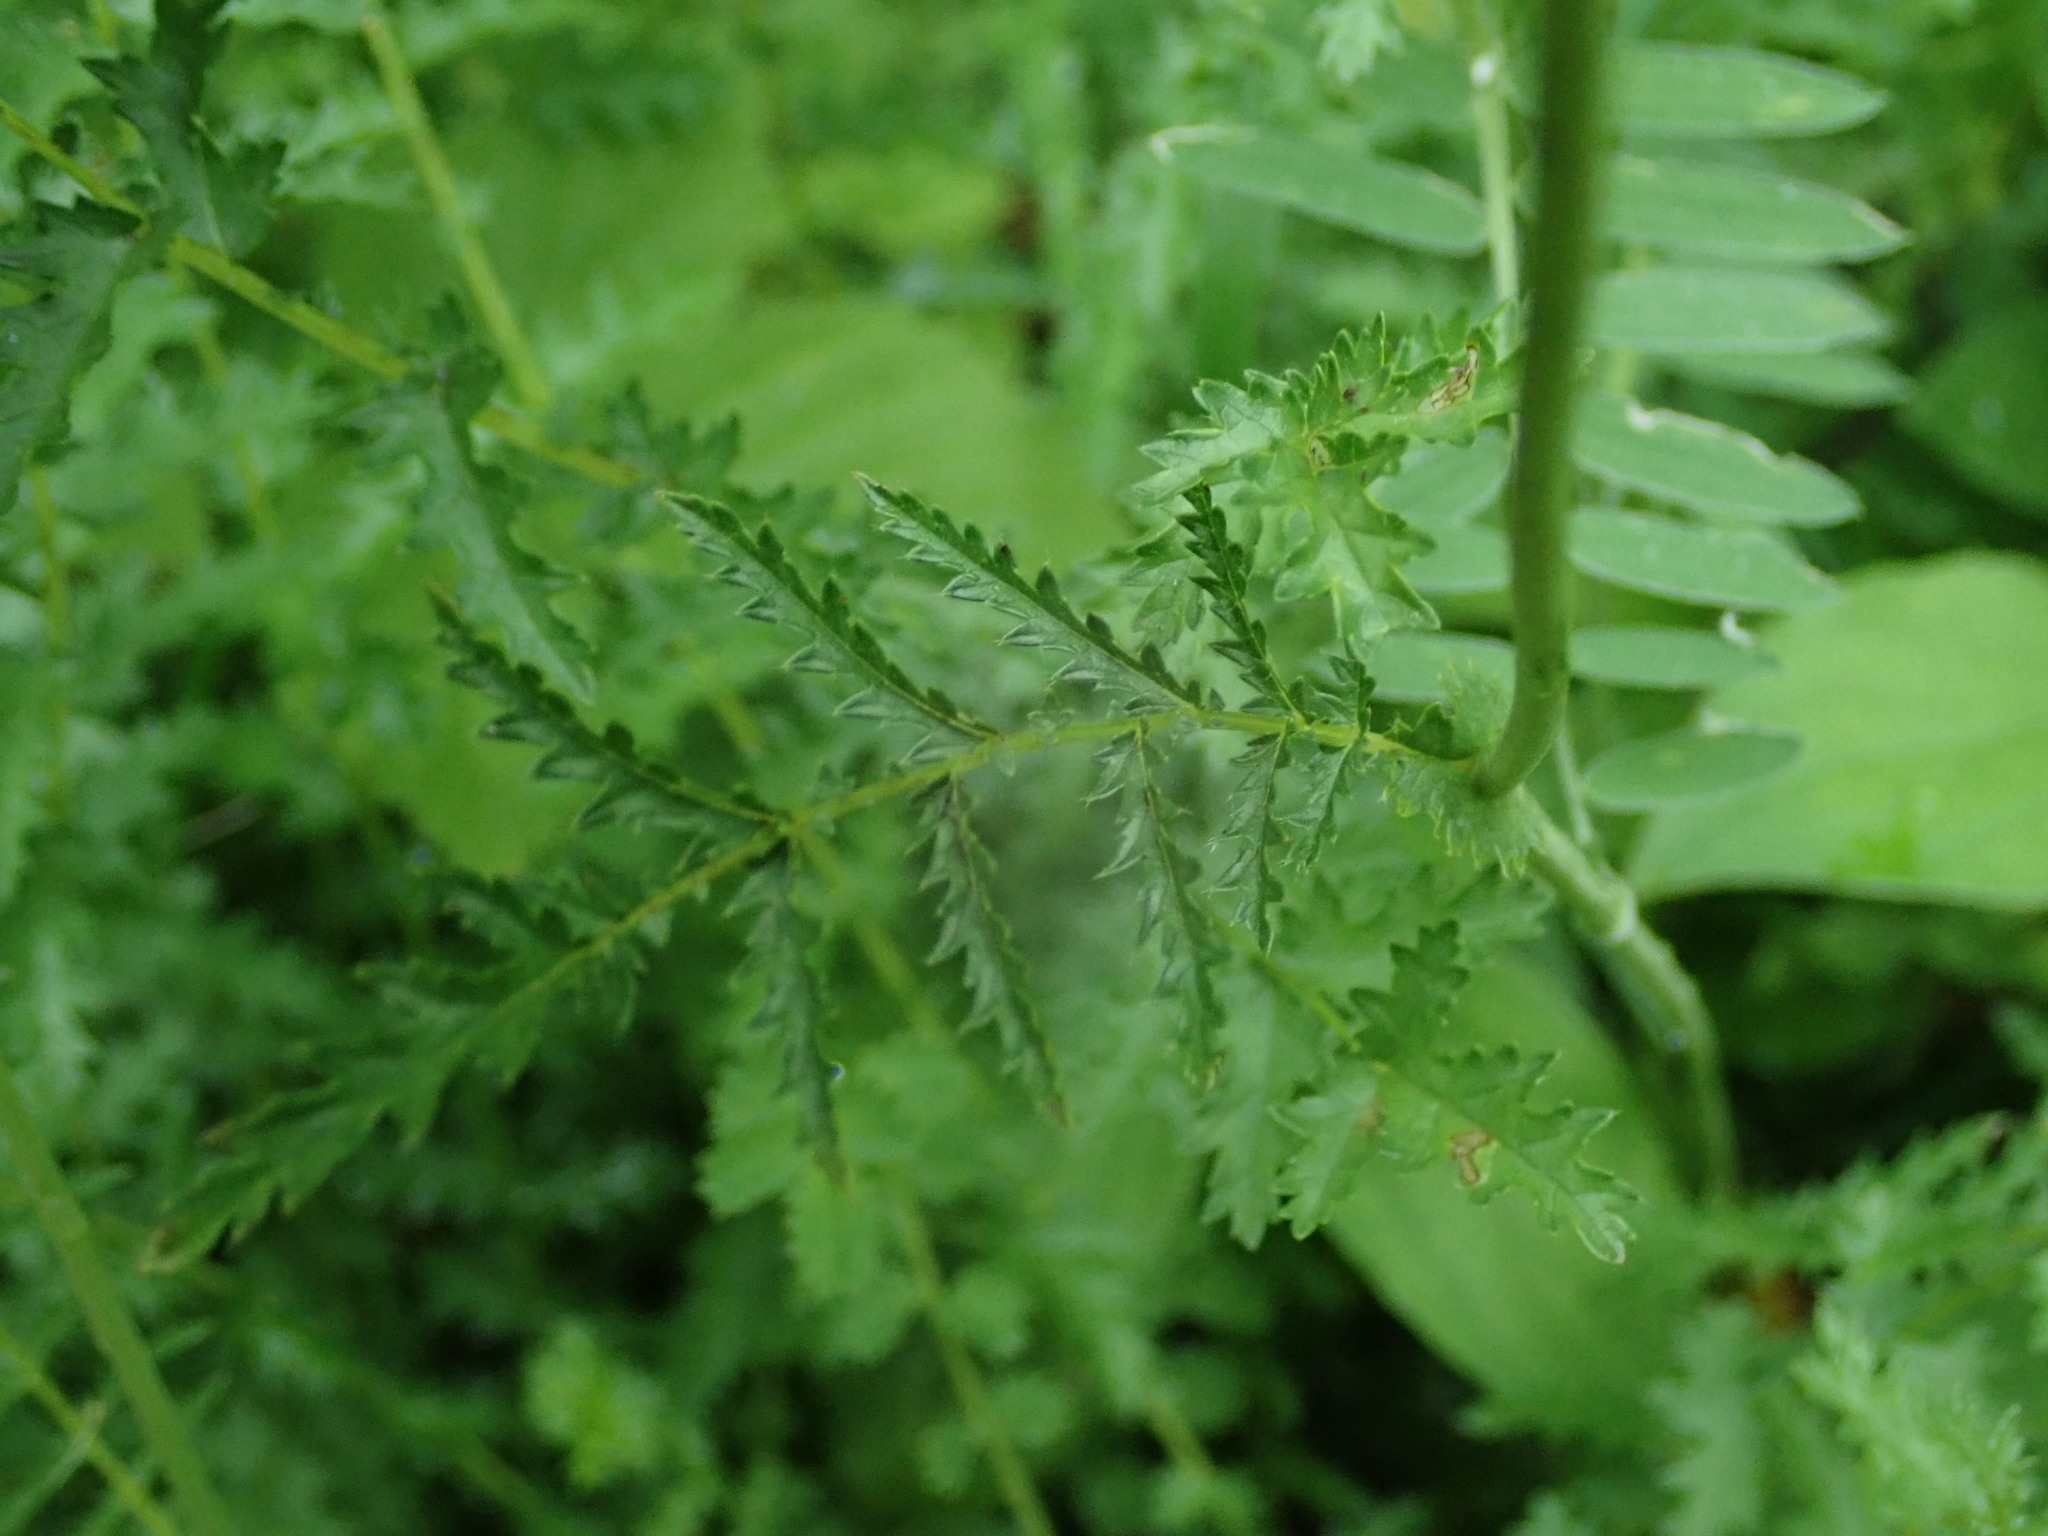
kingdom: Plantae
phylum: Tracheophyta
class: Magnoliopsida
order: Rosales
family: Rosaceae
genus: Filipendula
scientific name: Filipendula vulgaris
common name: Dropwort
